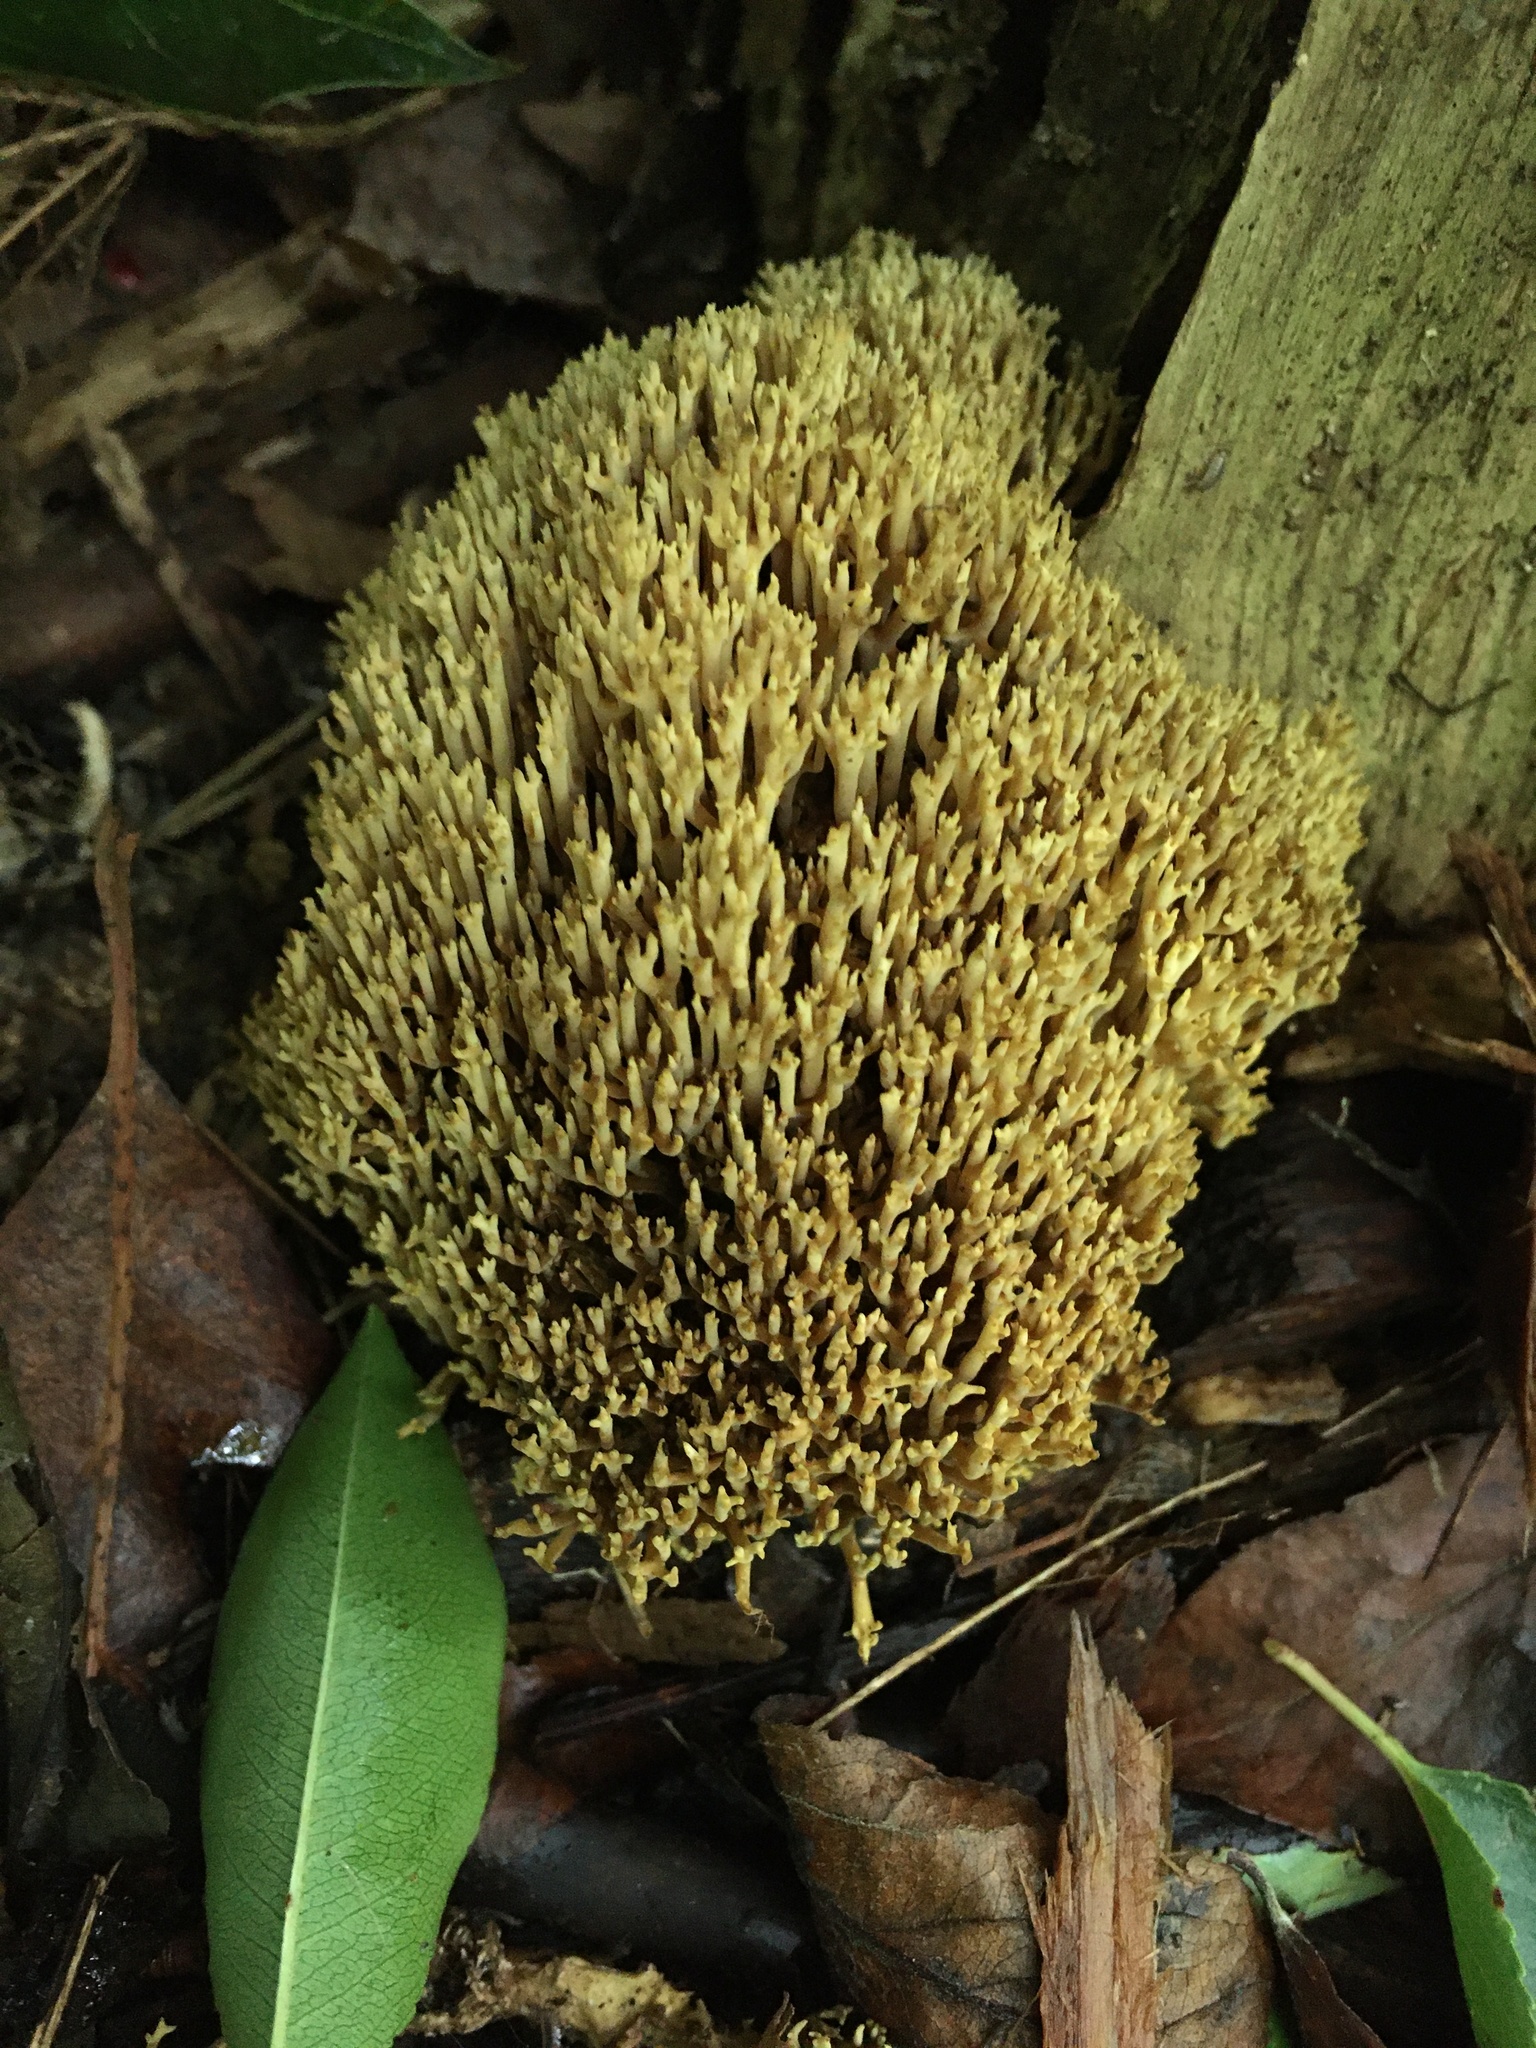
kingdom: Fungi
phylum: Basidiomycota
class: Agaricomycetes
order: Gomphales
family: Gomphaceae
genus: Ramaria
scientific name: Ramaria stricta
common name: Upright coral
